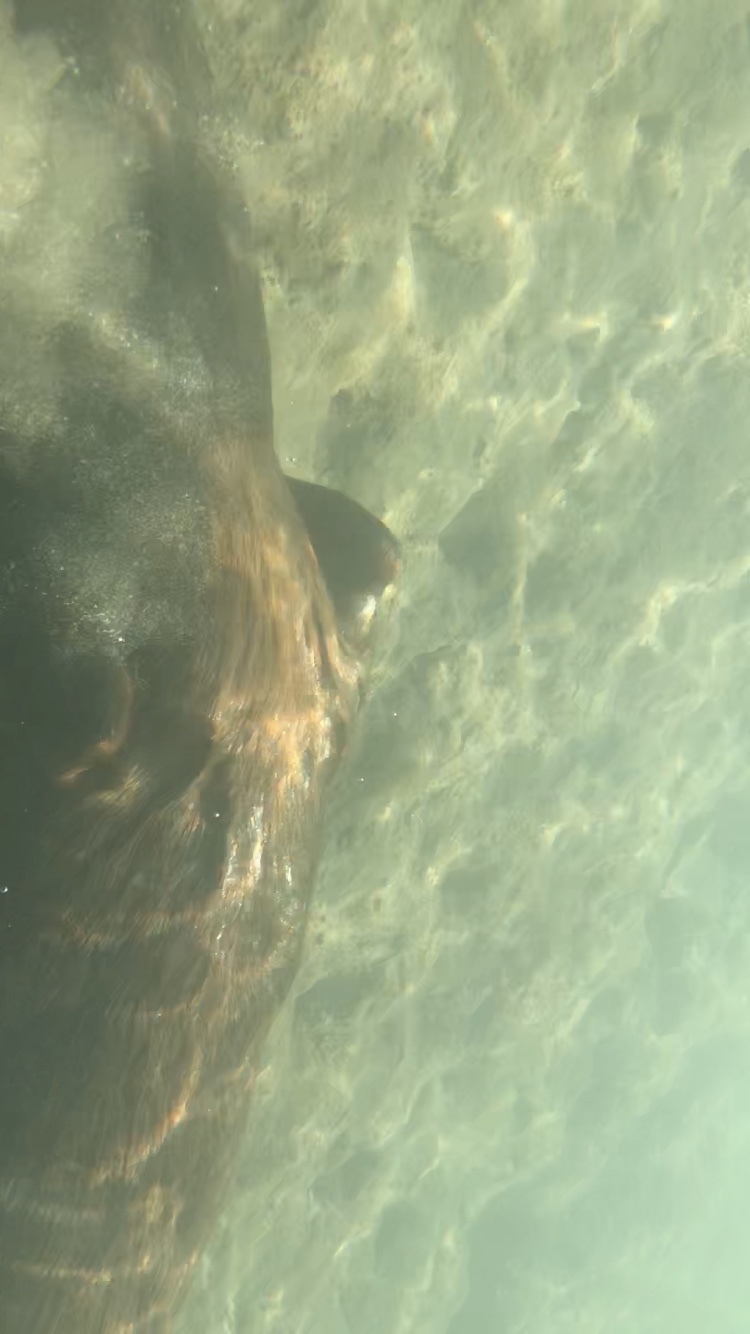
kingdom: Animalia
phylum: Chordata
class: Mammalia
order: Rodentia
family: Castoridae
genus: Castor
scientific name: Castor canadensis
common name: American beaver
